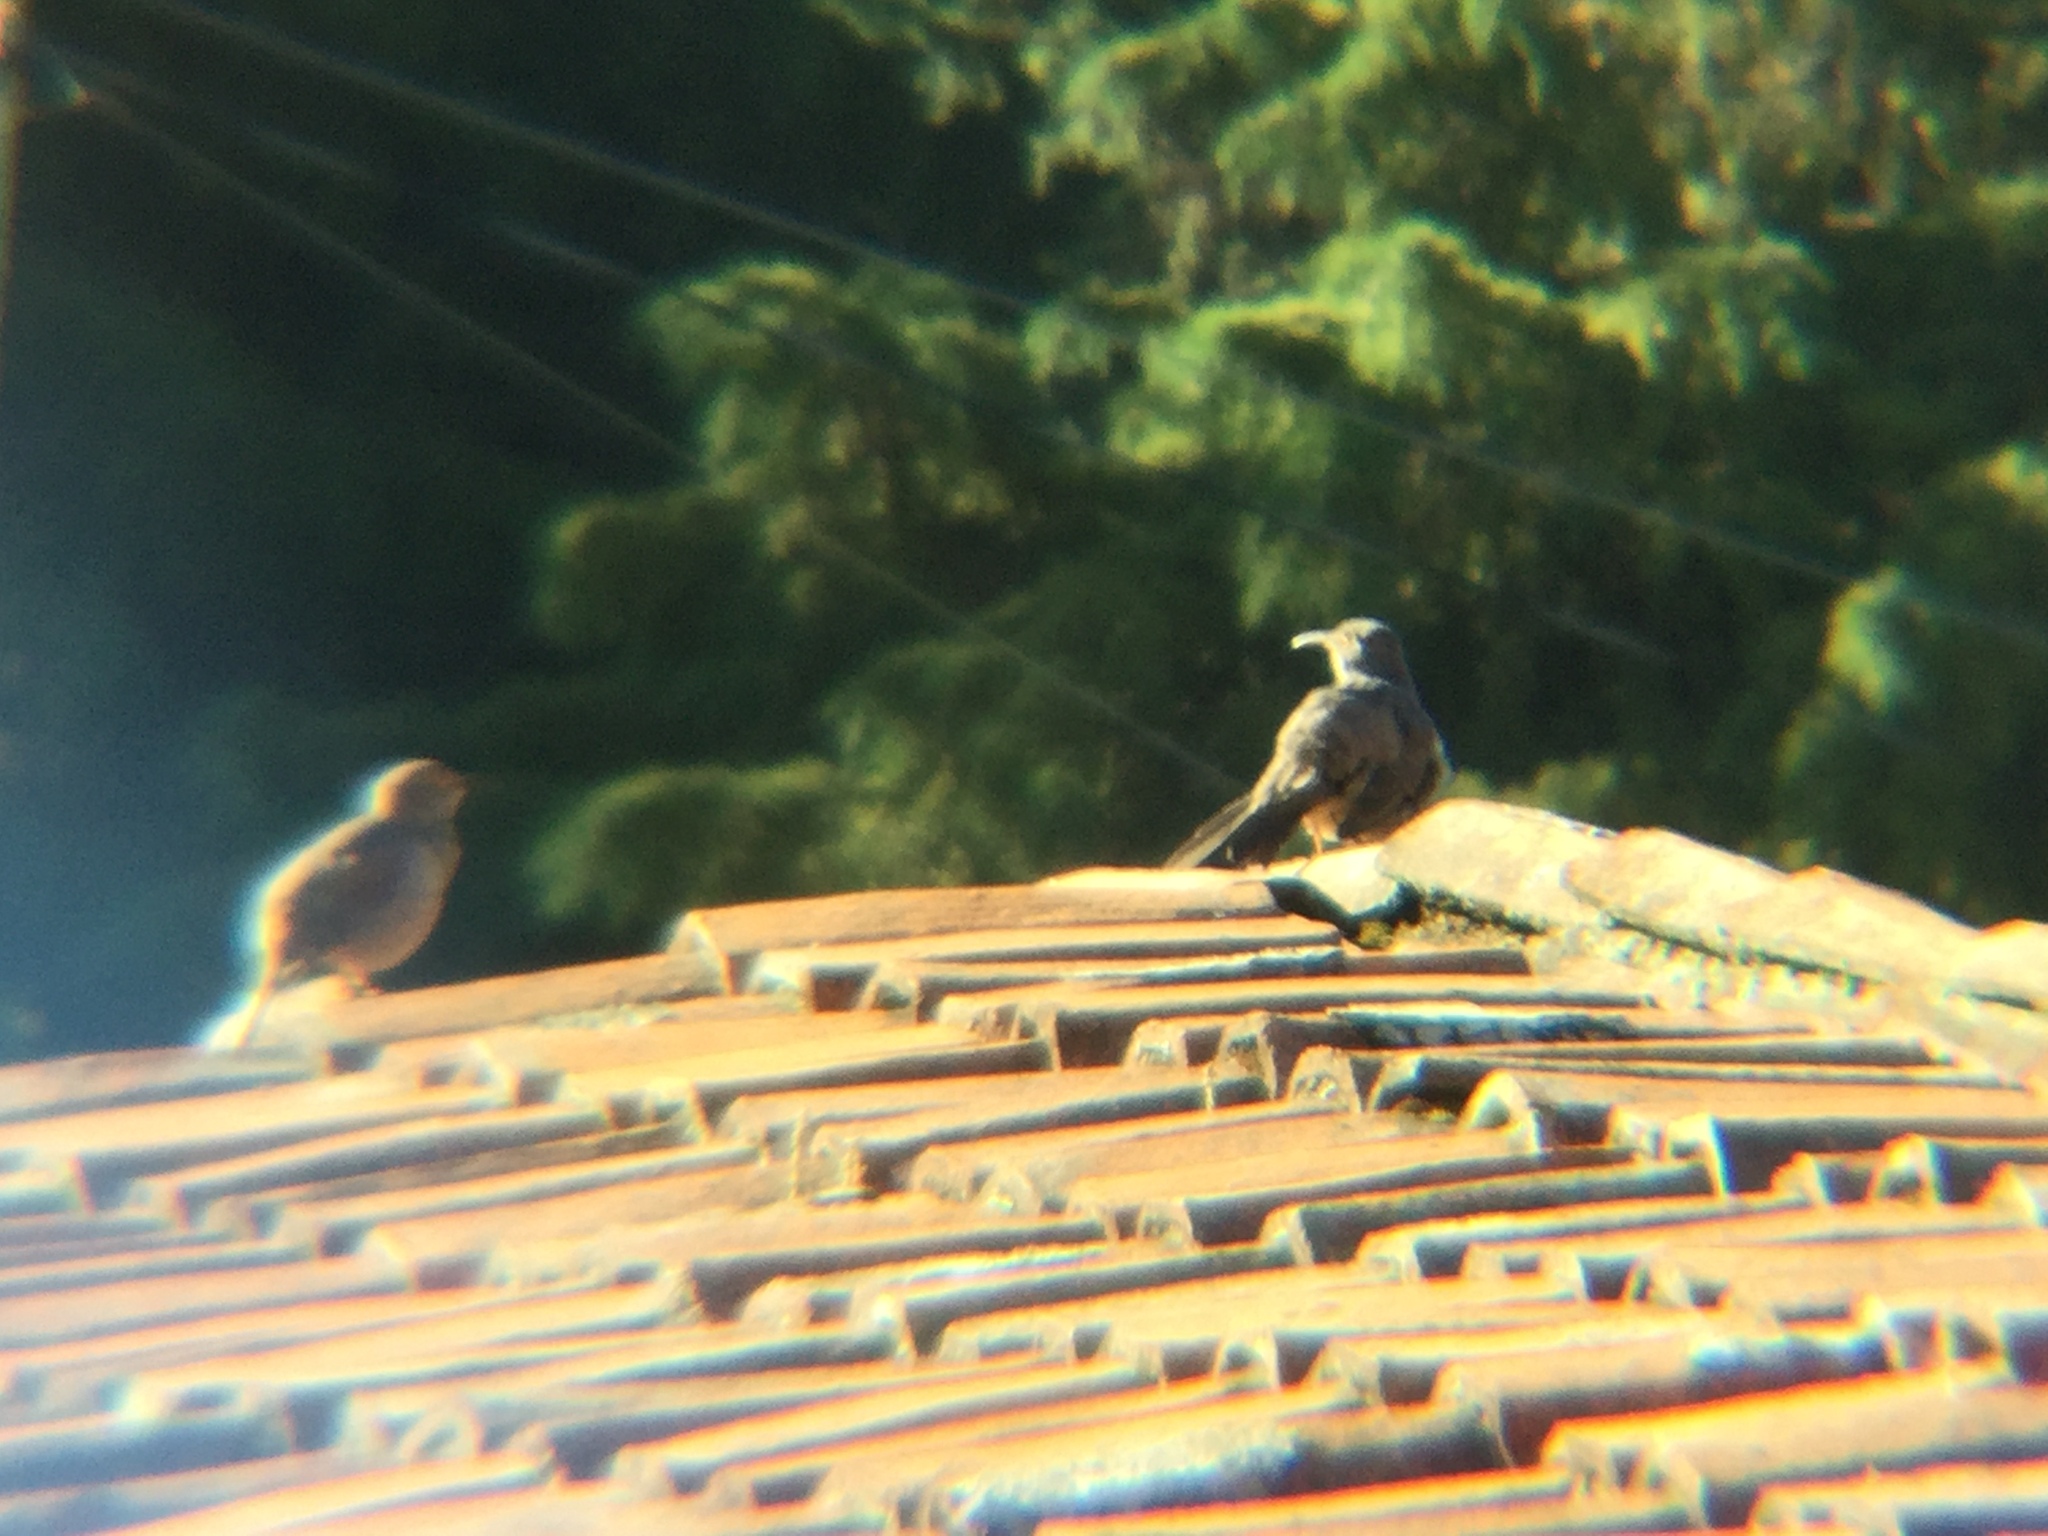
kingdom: Animalia
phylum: Chordata
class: Aves
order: Passeriformes
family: Mimidae
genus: Toxostoma
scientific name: Toxostoma curvirostre
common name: Curve-billed thrasher
